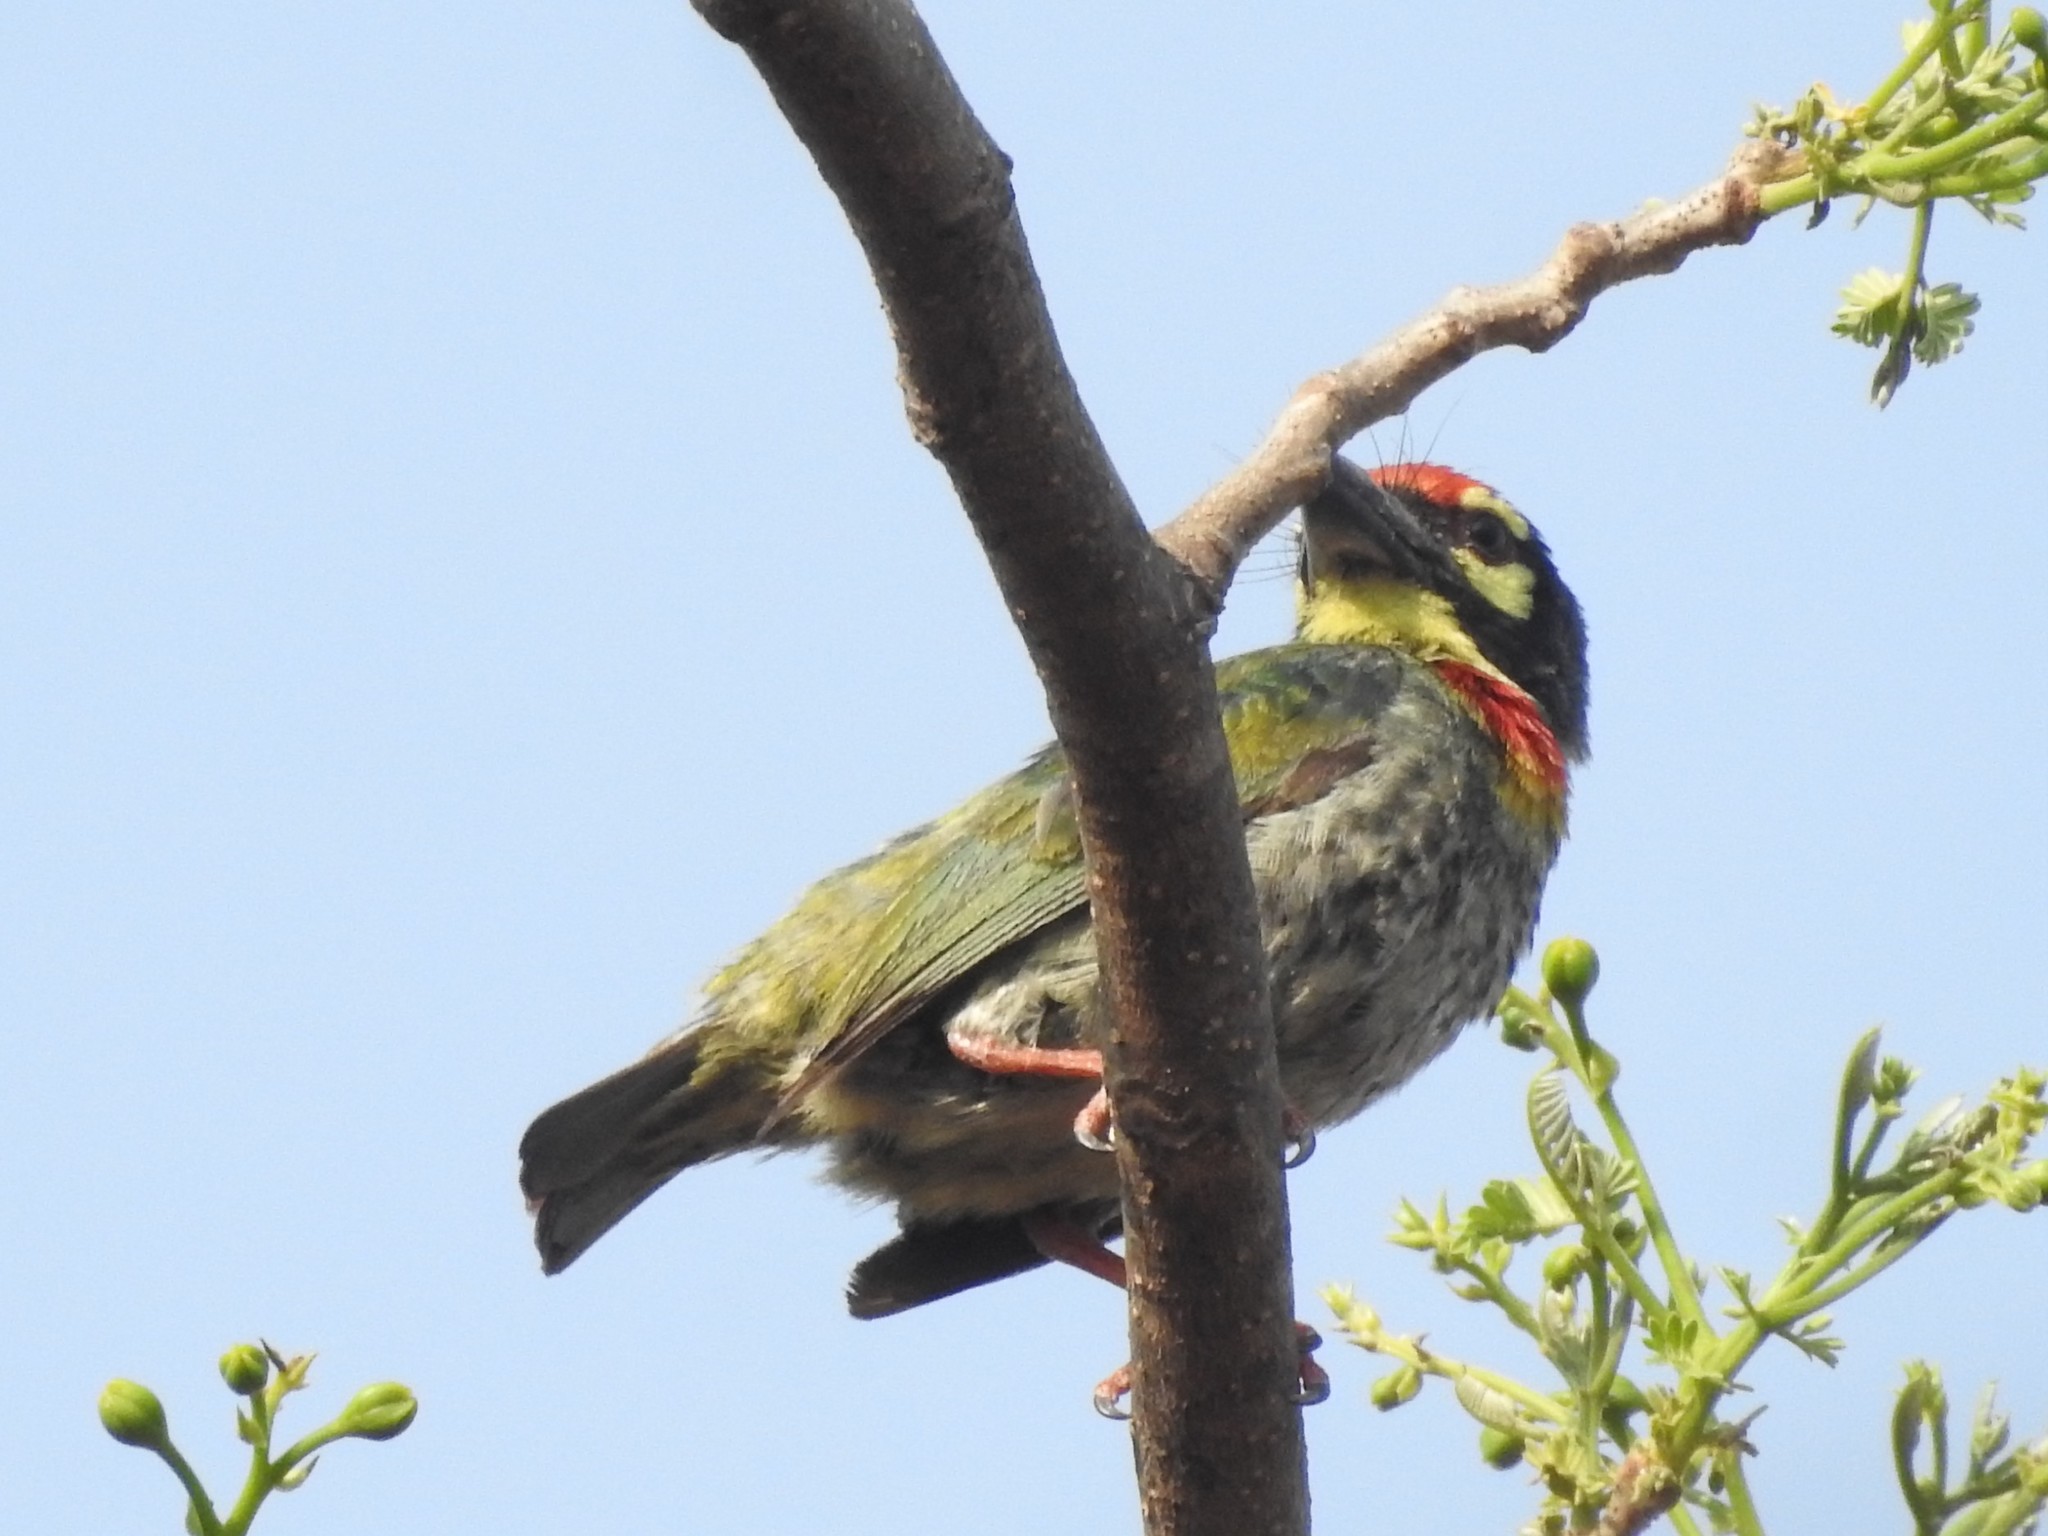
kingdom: Animalia
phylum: Chordata
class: Aves
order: Piciformes
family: Megalaimidae
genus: Psilopogon
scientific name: Psilopogon haemacephalus
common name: Coppersmith barbet
